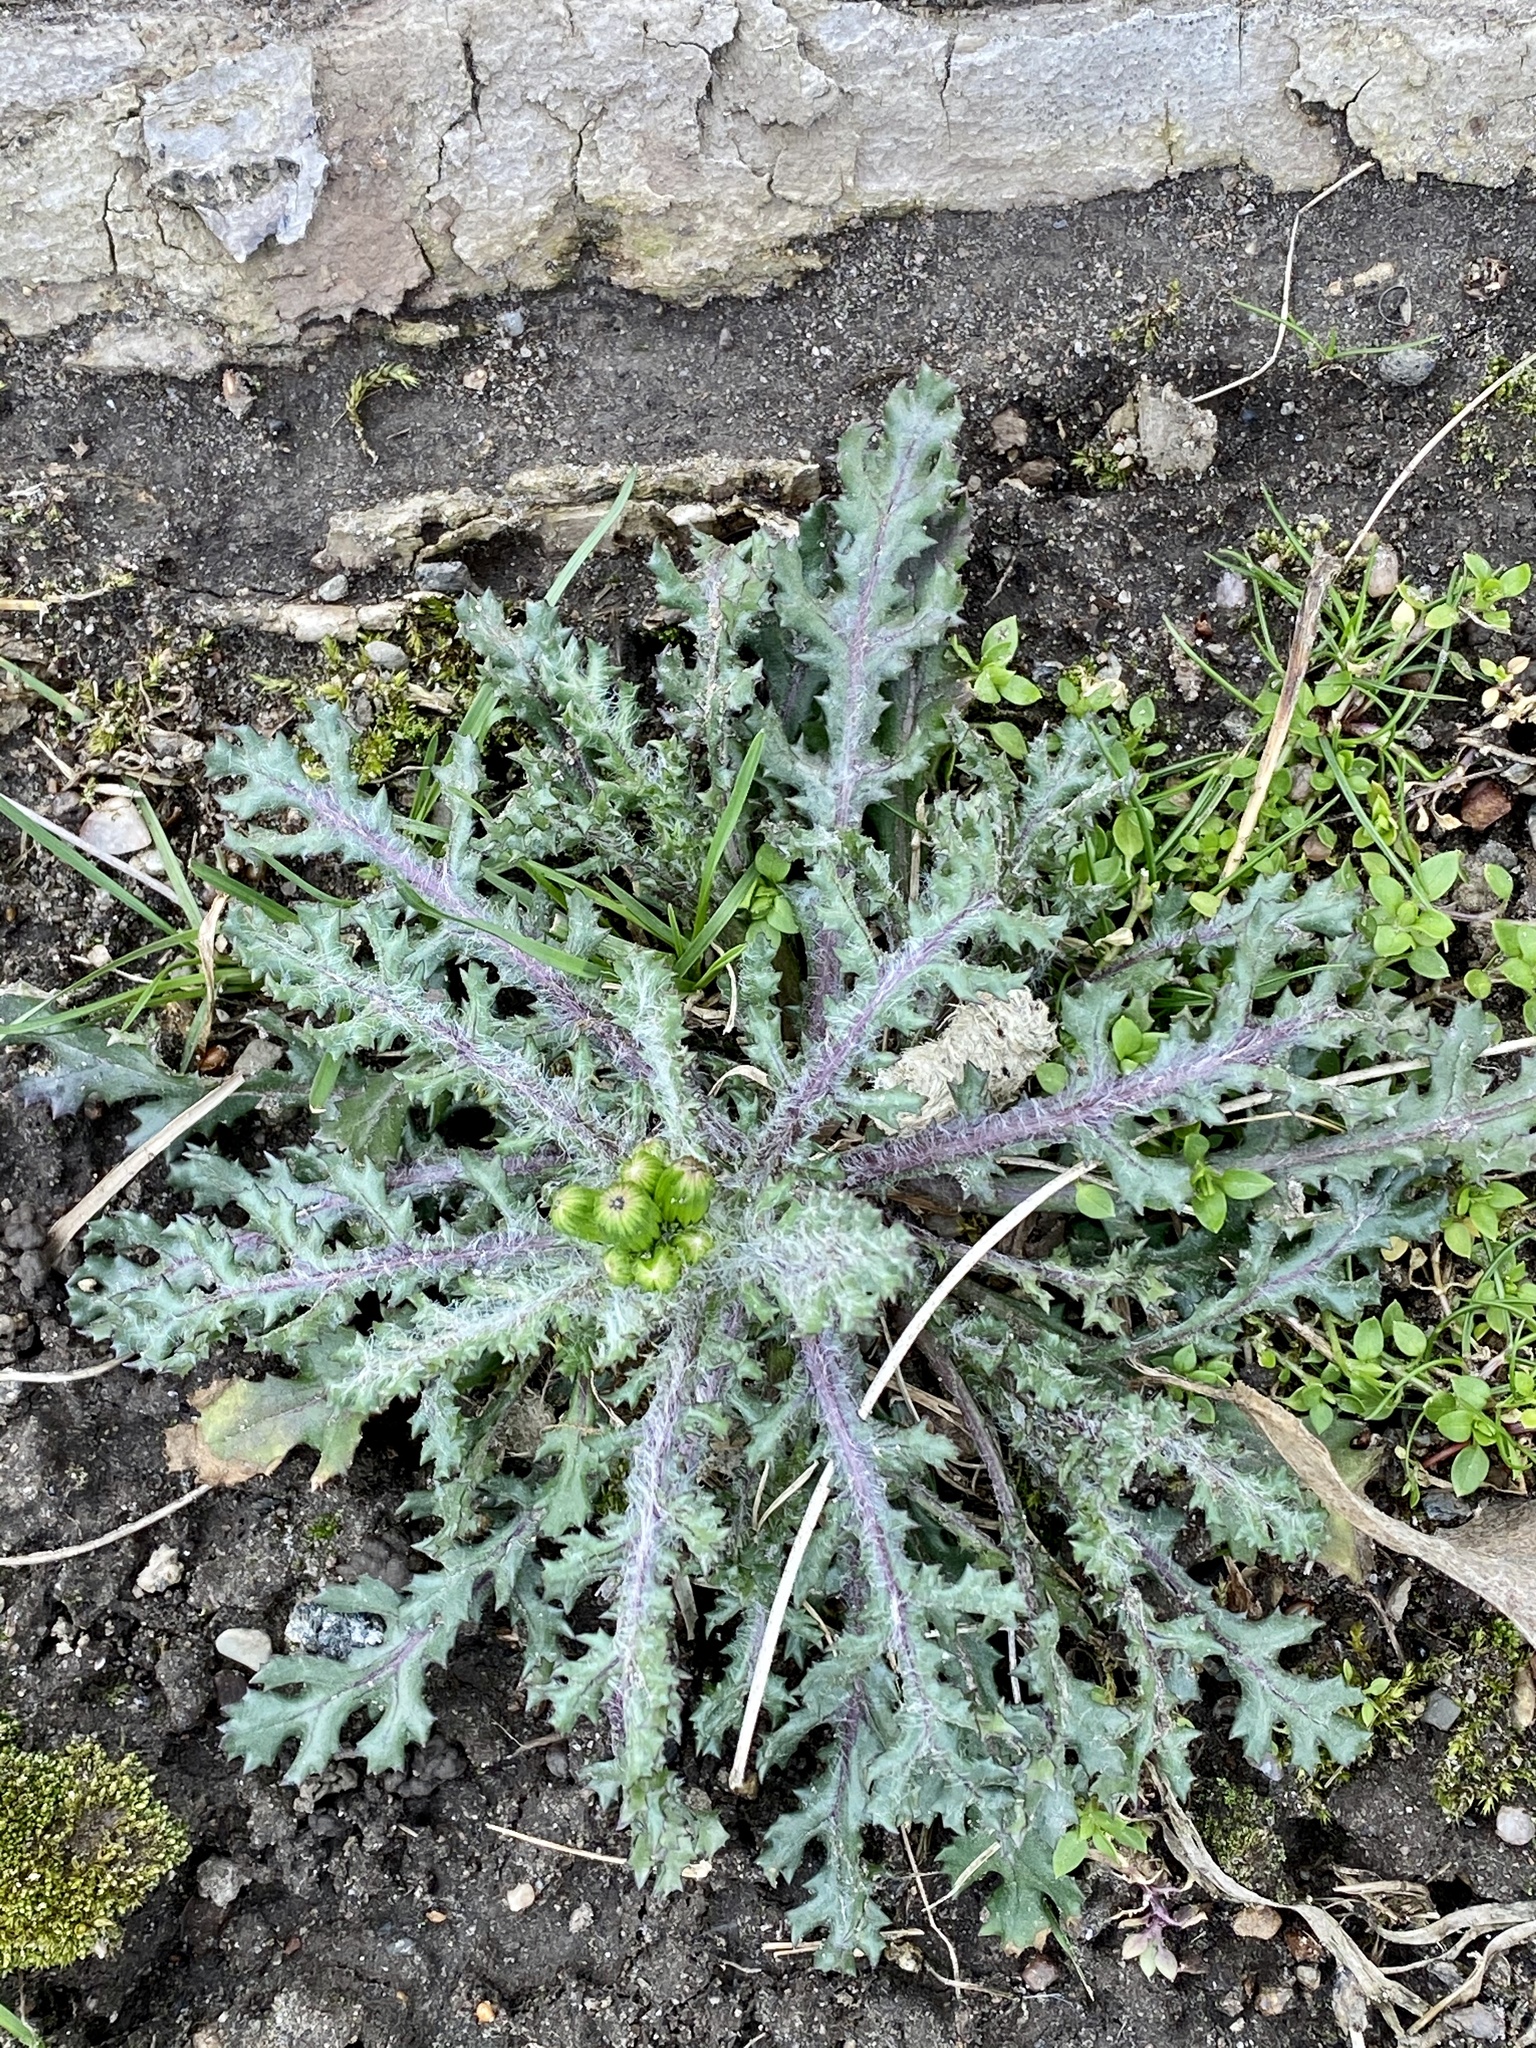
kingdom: Plantae
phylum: Tracheophyta
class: Magnoliopsida
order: Asterales
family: Asteraceae
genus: Senecio
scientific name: Senecio vulgaris
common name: Old-man-in-the-spring
